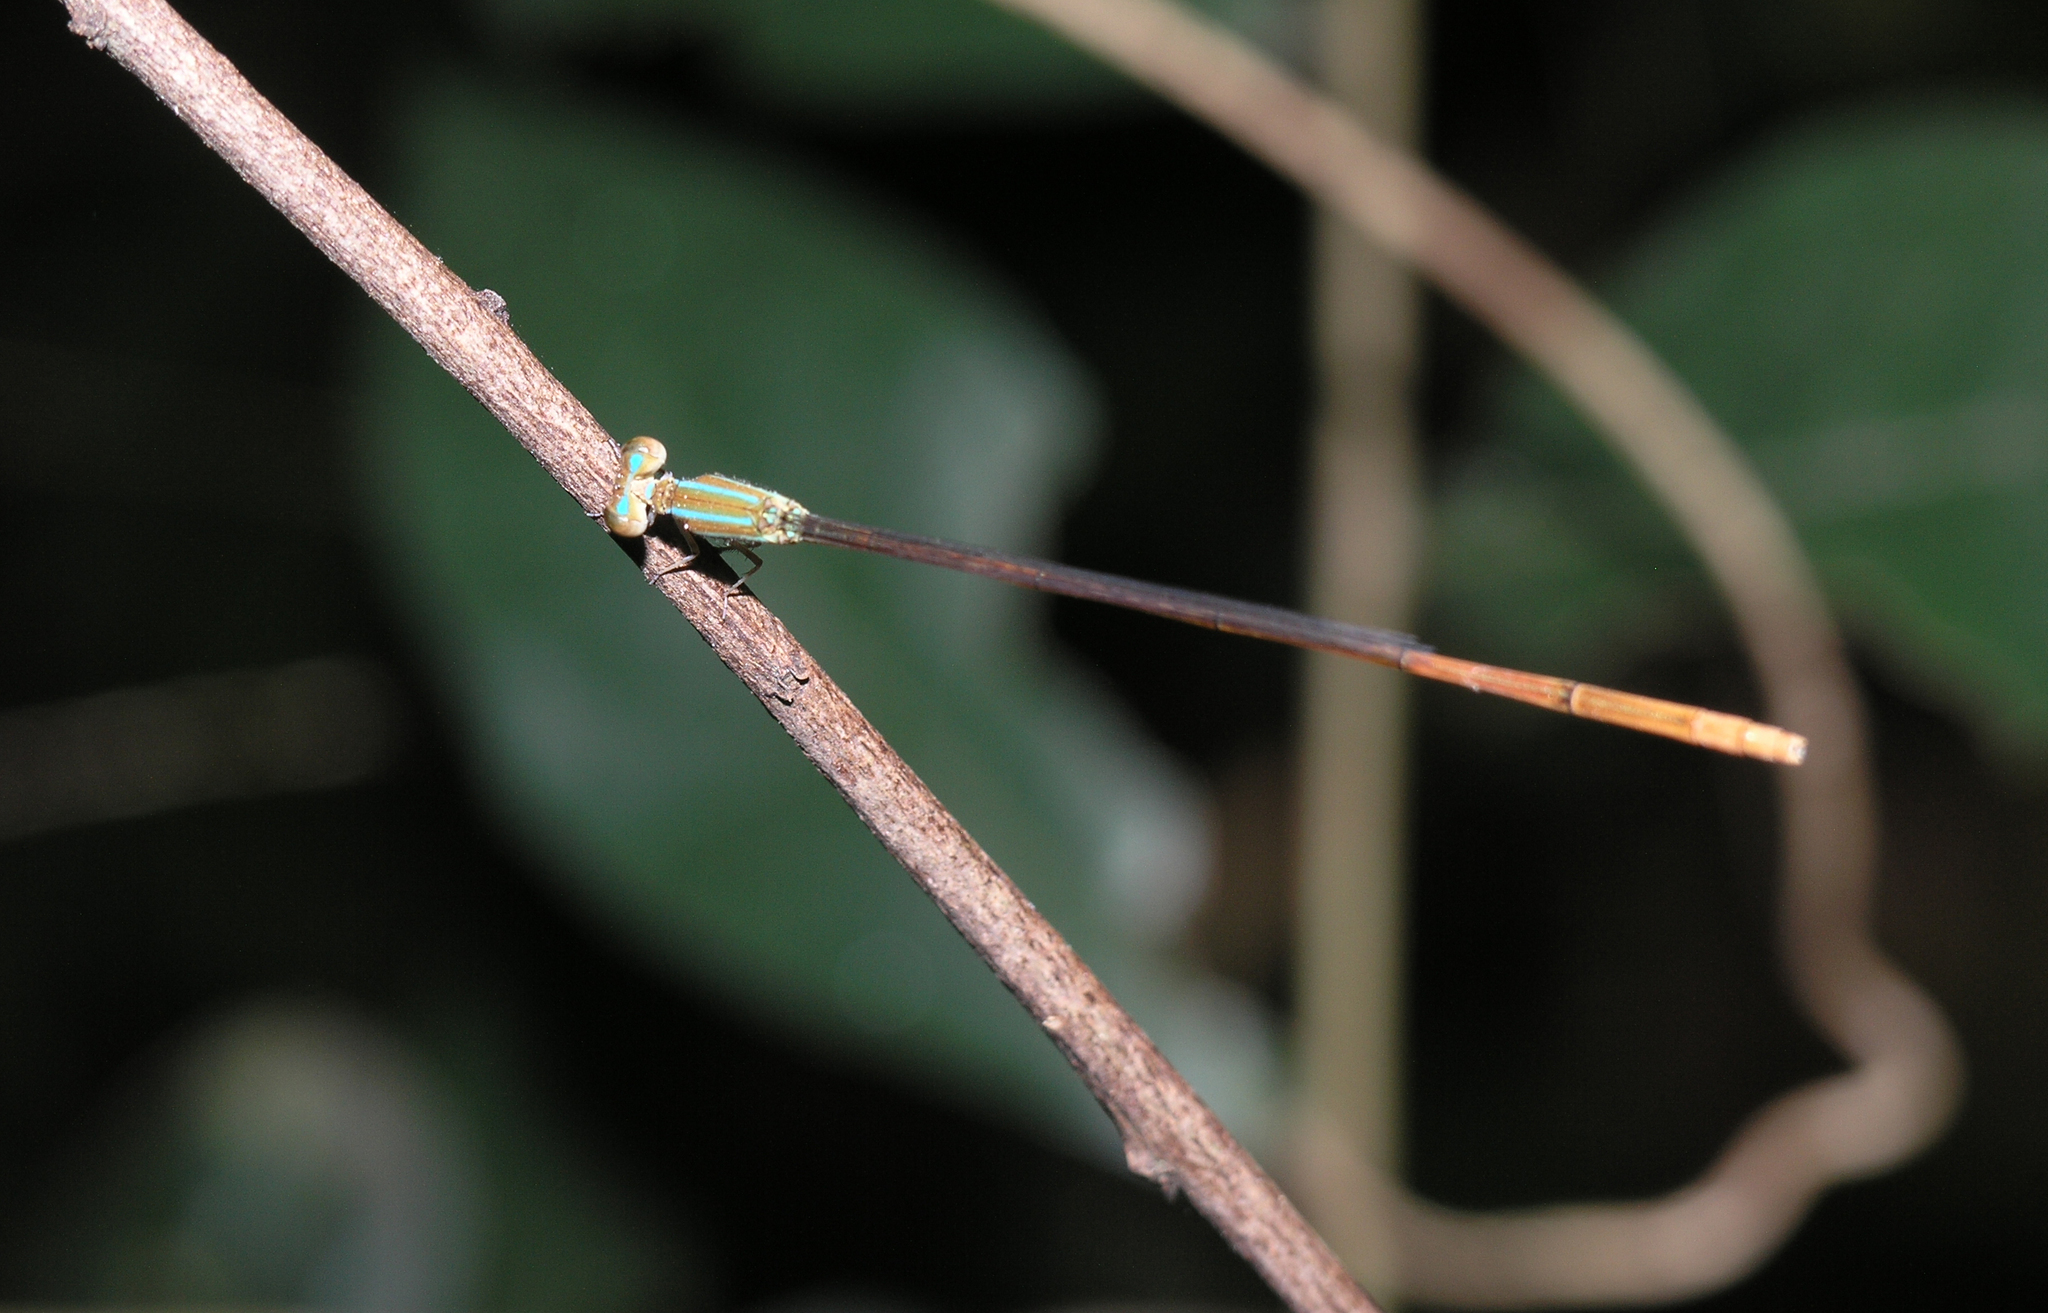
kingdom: Animalia
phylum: Arthropoda
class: Insecta
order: Odonata
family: Coenagrionidae
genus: Aciagrion
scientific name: Aciagrion pallidum
